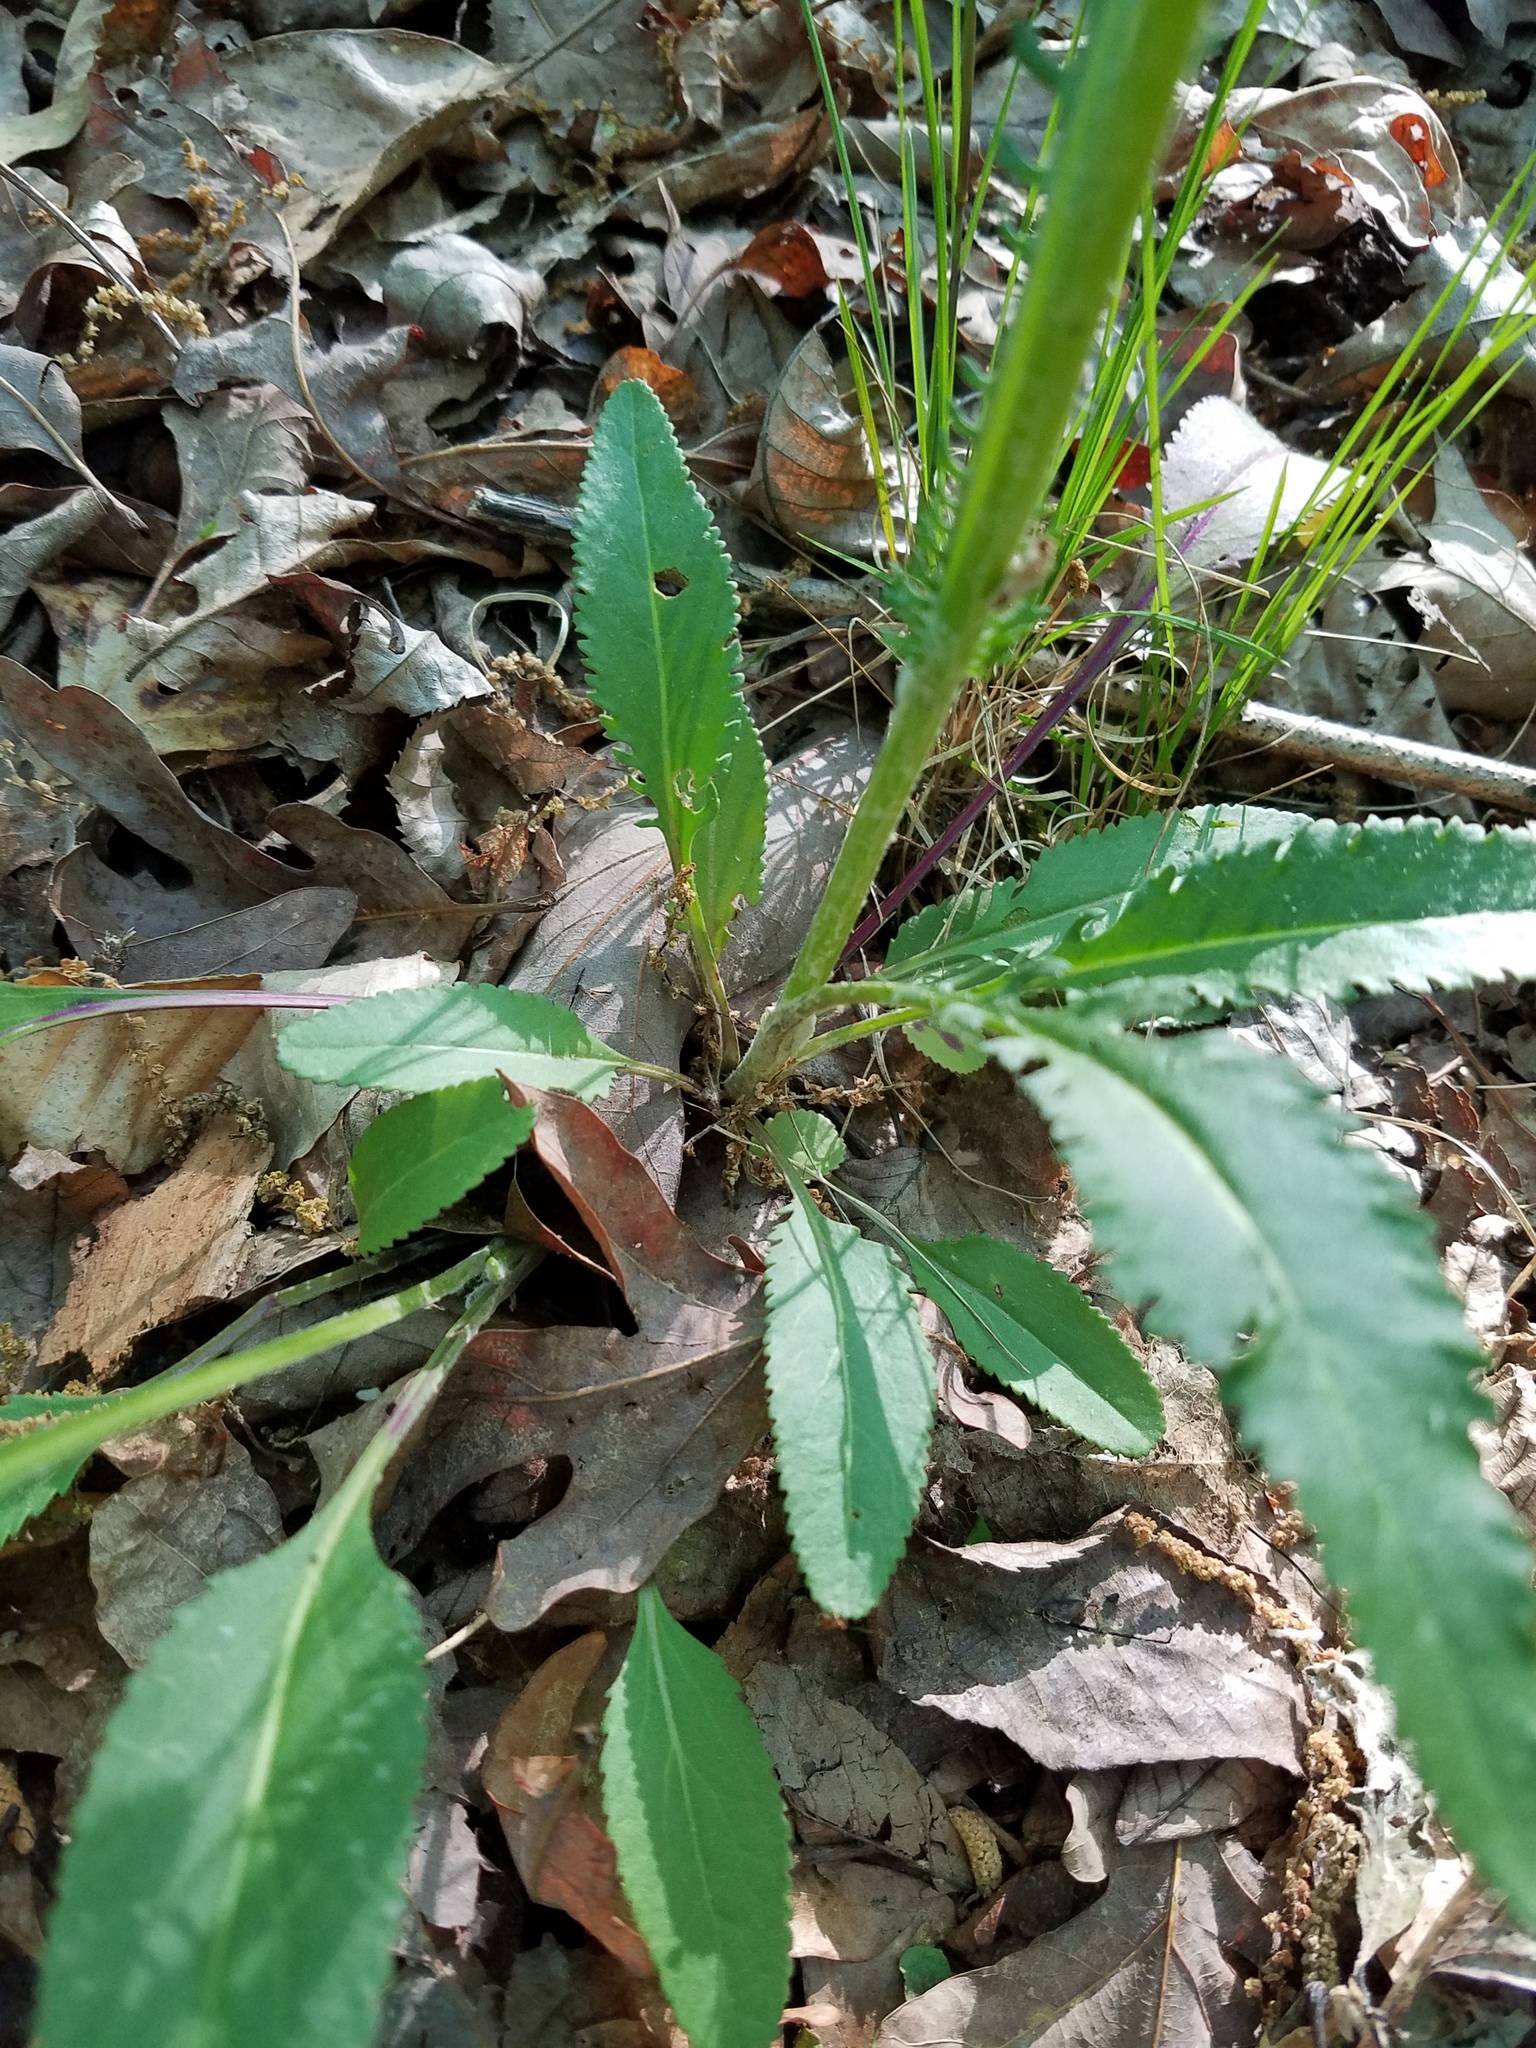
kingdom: Plantae
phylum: Tracheophyta
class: Magnoliopsida
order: Asterales
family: Asteraceae
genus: Packera
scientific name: Packera anonyma
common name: Small ragwort
